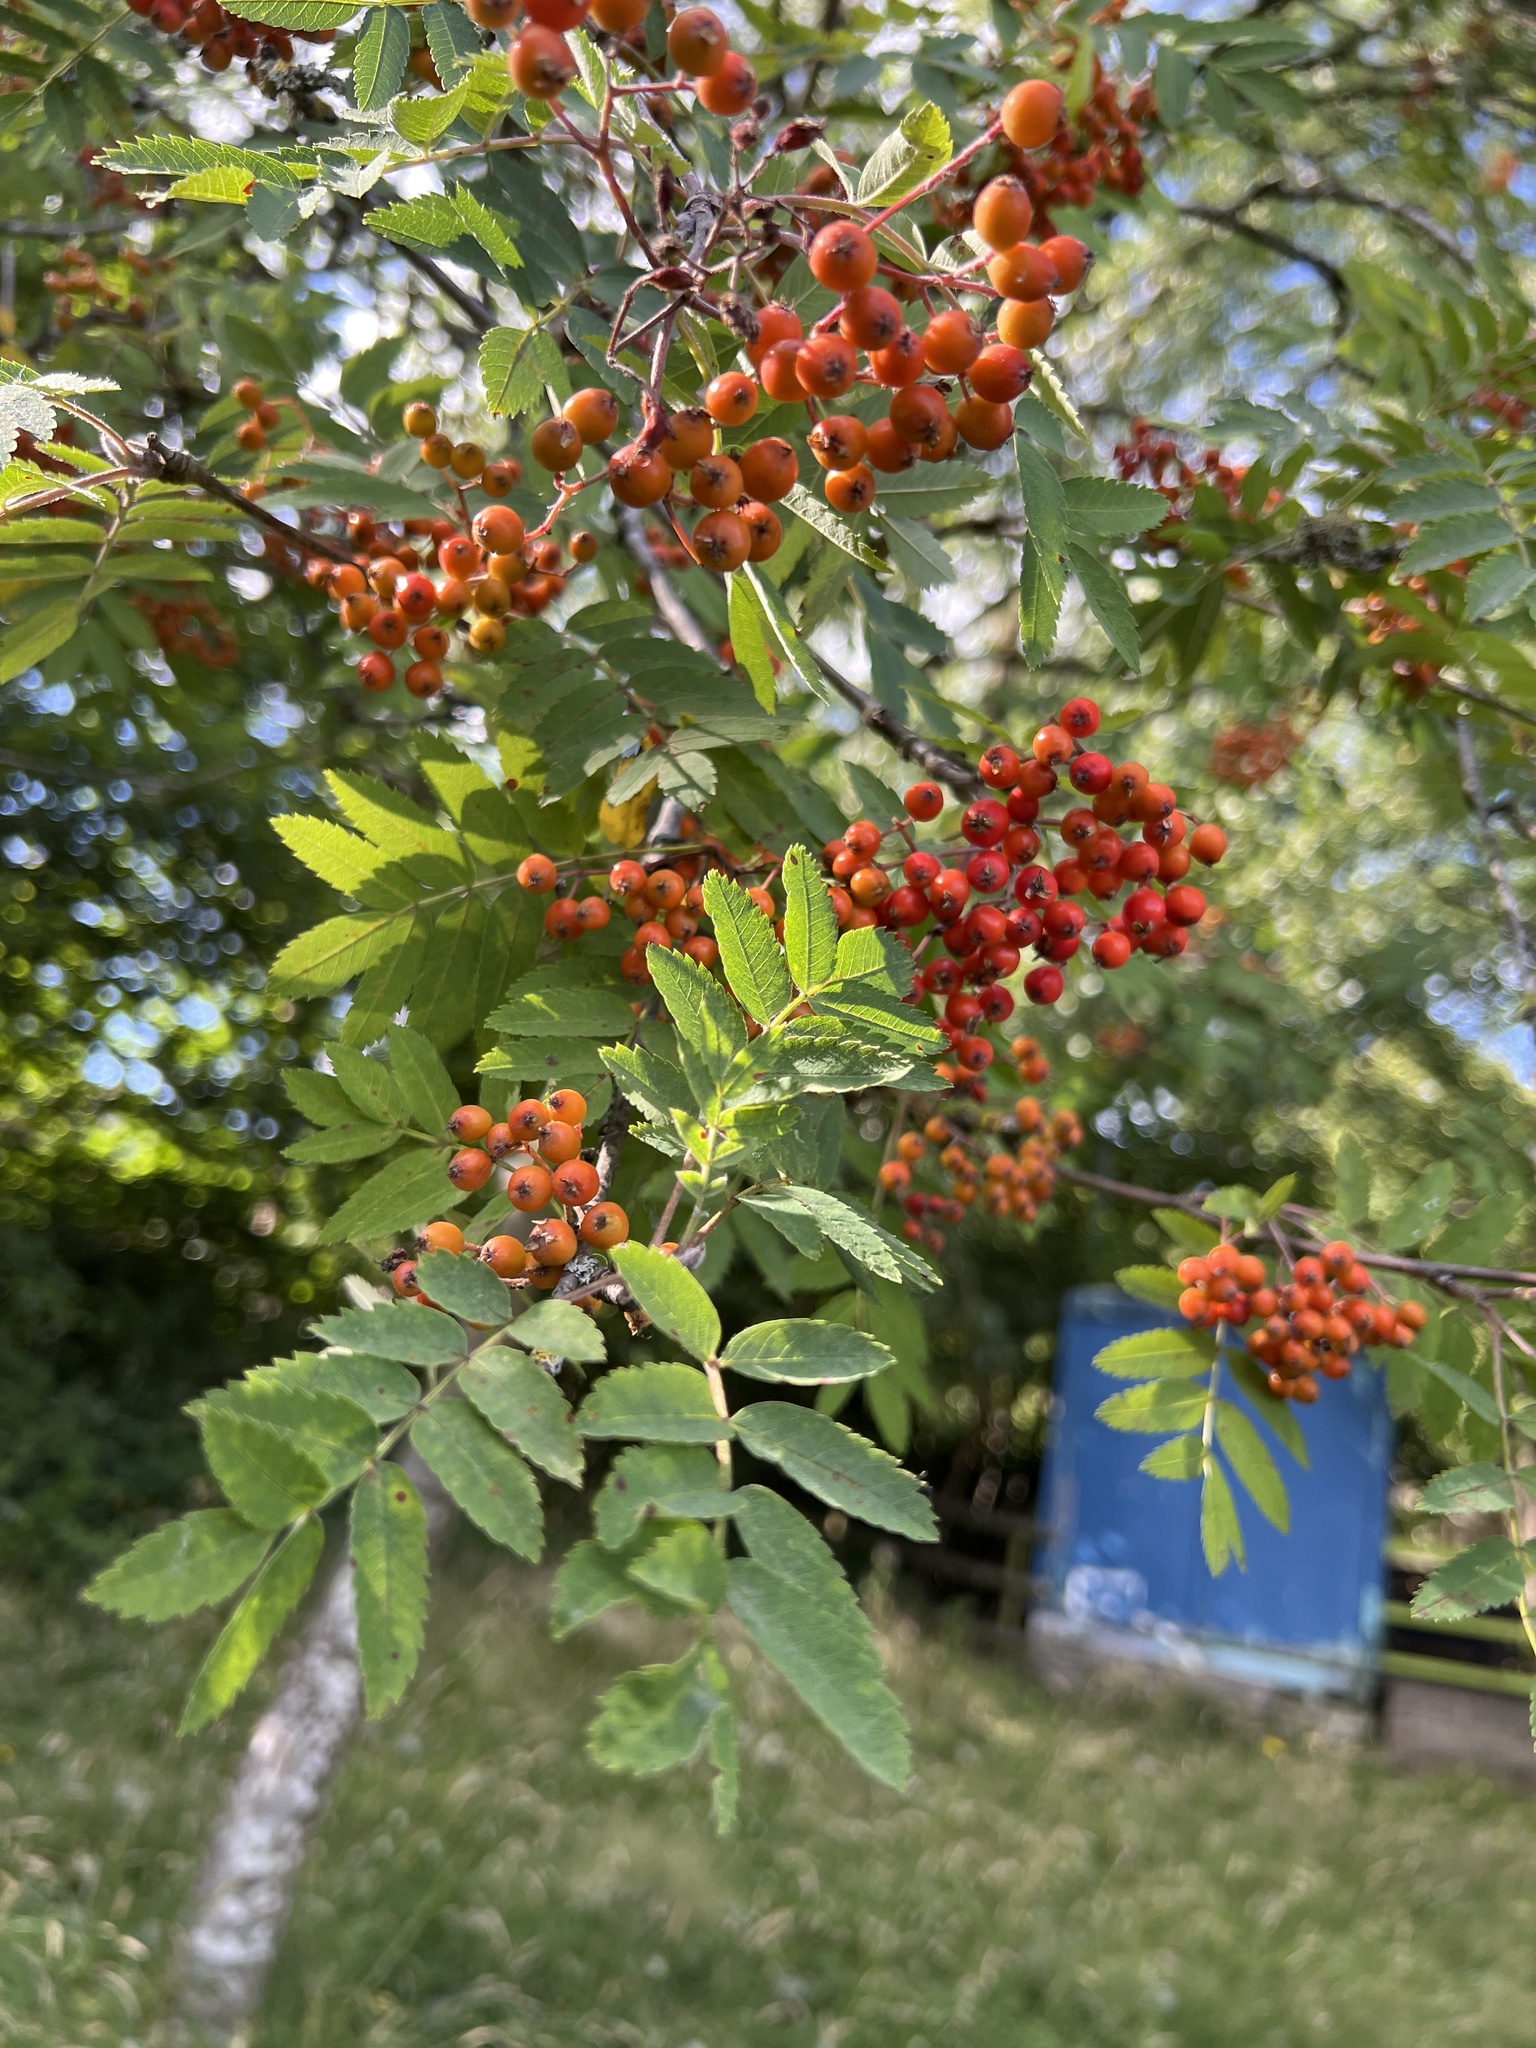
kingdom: Plantae
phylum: Tracheophyta
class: Magnoliopsida
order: Rosales
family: Rosaceae
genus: Sorbus
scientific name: Sorbus aucuparia
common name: Rowan
